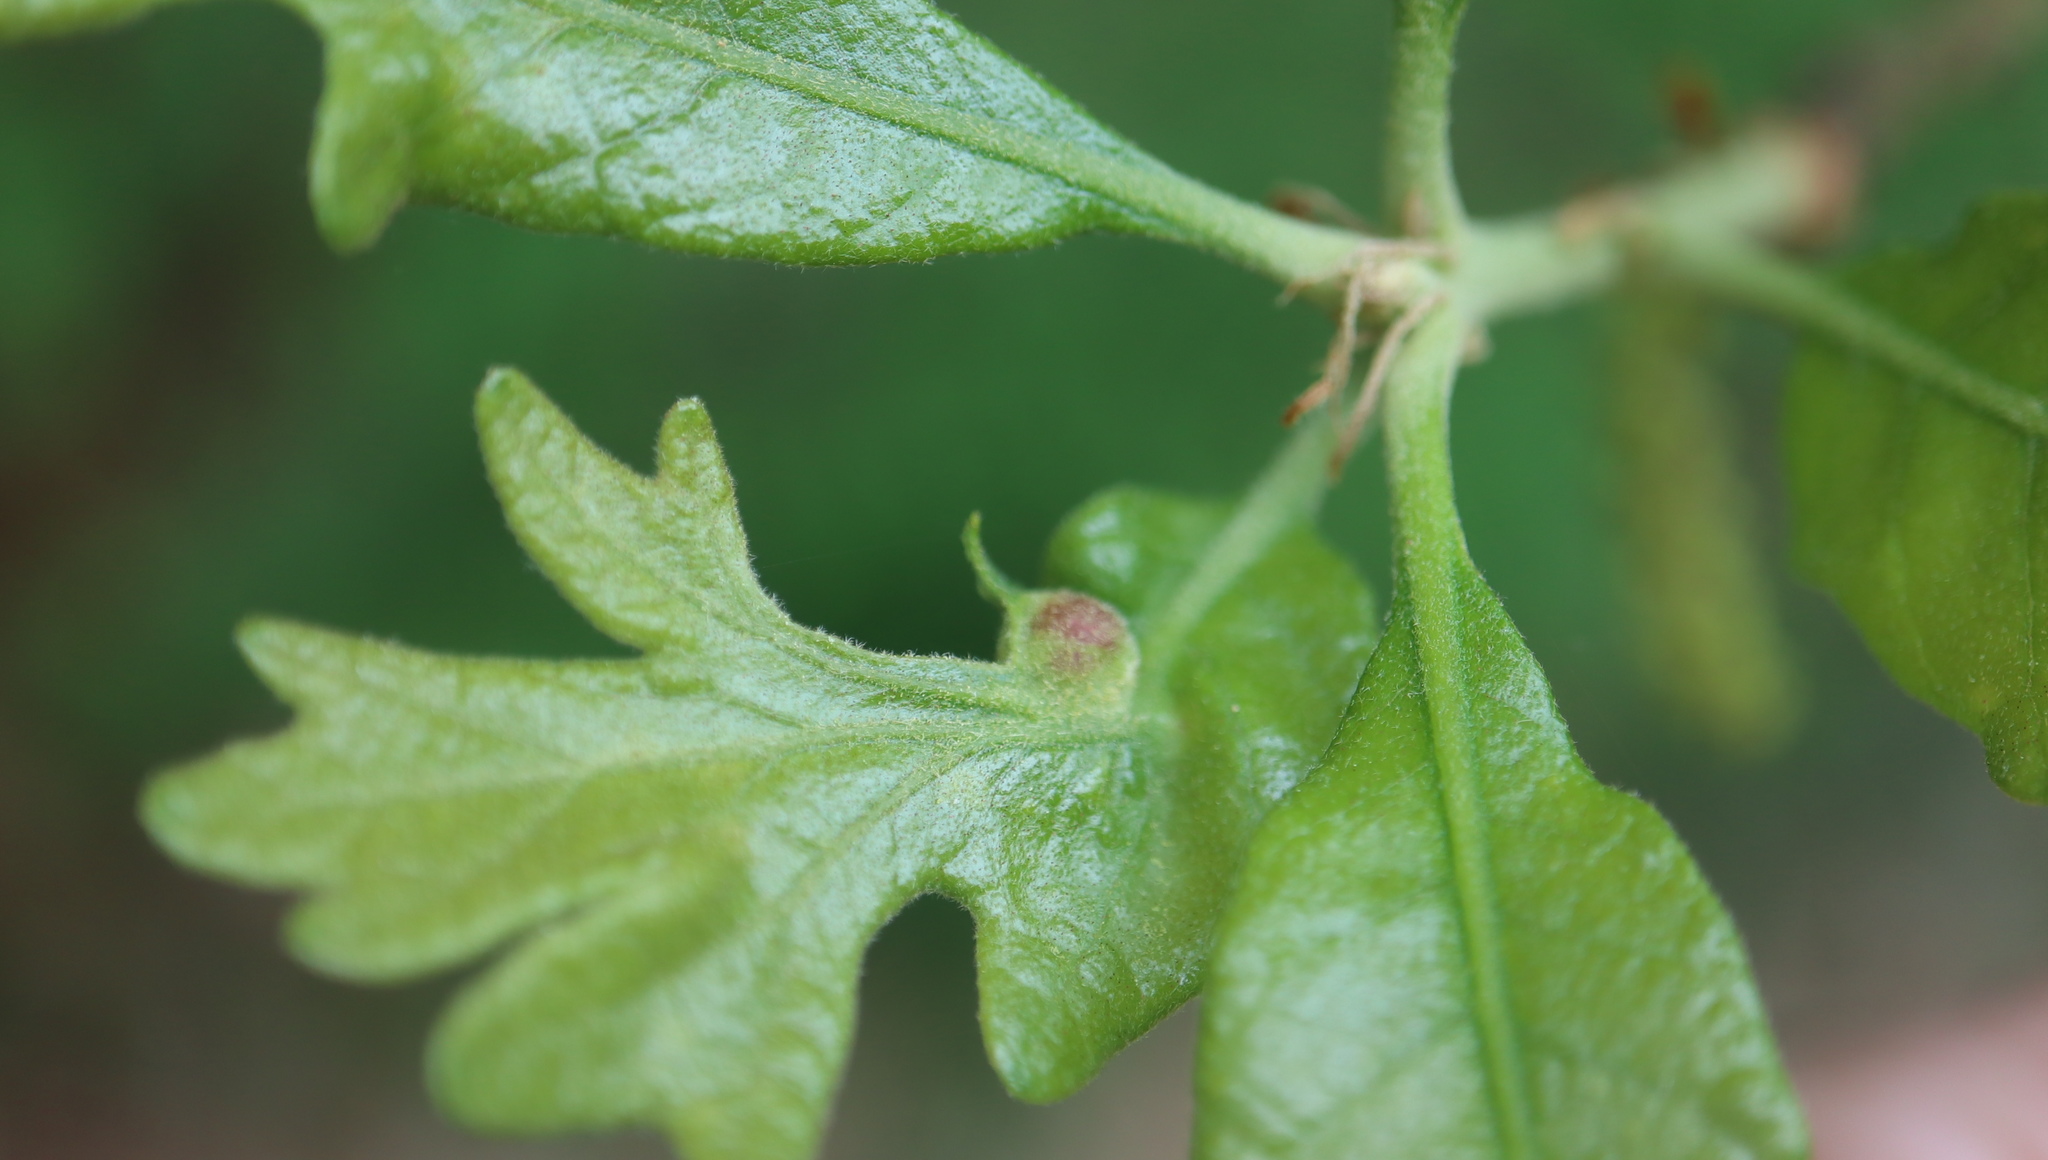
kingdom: Animalia
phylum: Arthropoda
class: Insecta
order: Hymenoptera
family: Cynipidae
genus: Andricus
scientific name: Andricus
